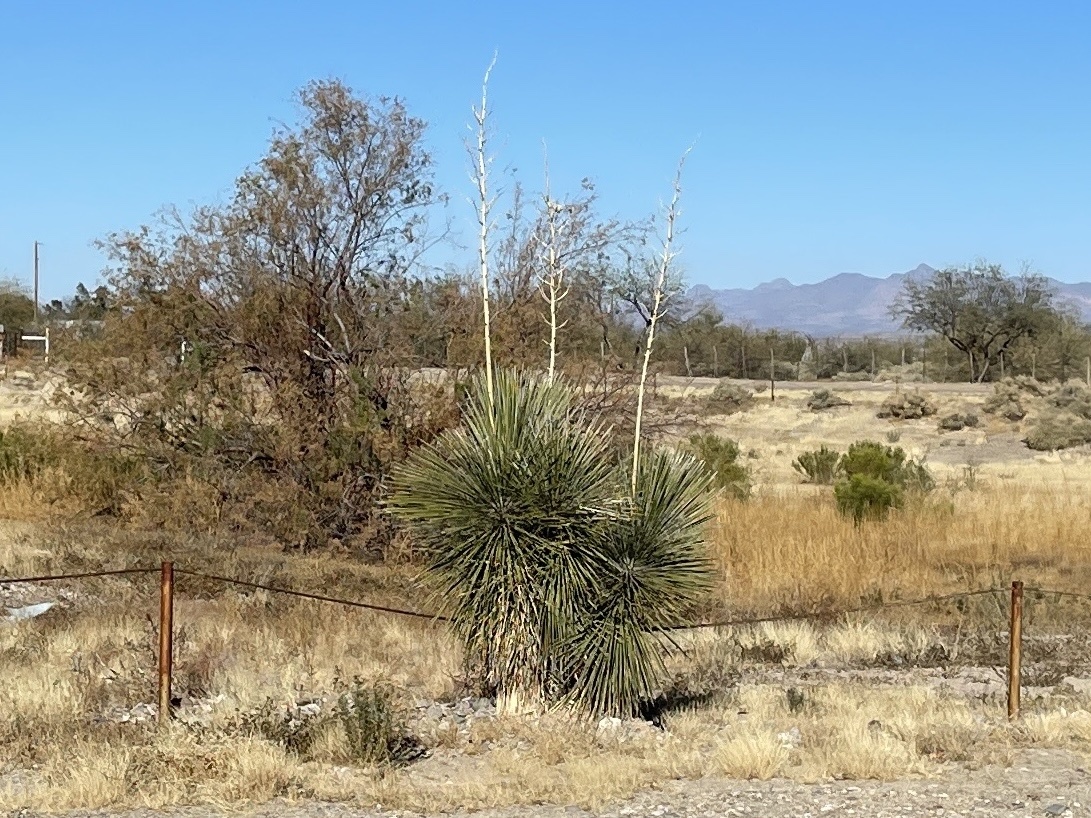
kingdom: Plantae
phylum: Tracheophyta
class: Liliopsida
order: Asparagales
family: Asparagaceae
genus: Yucca
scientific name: Yucca elata
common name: Palmella
